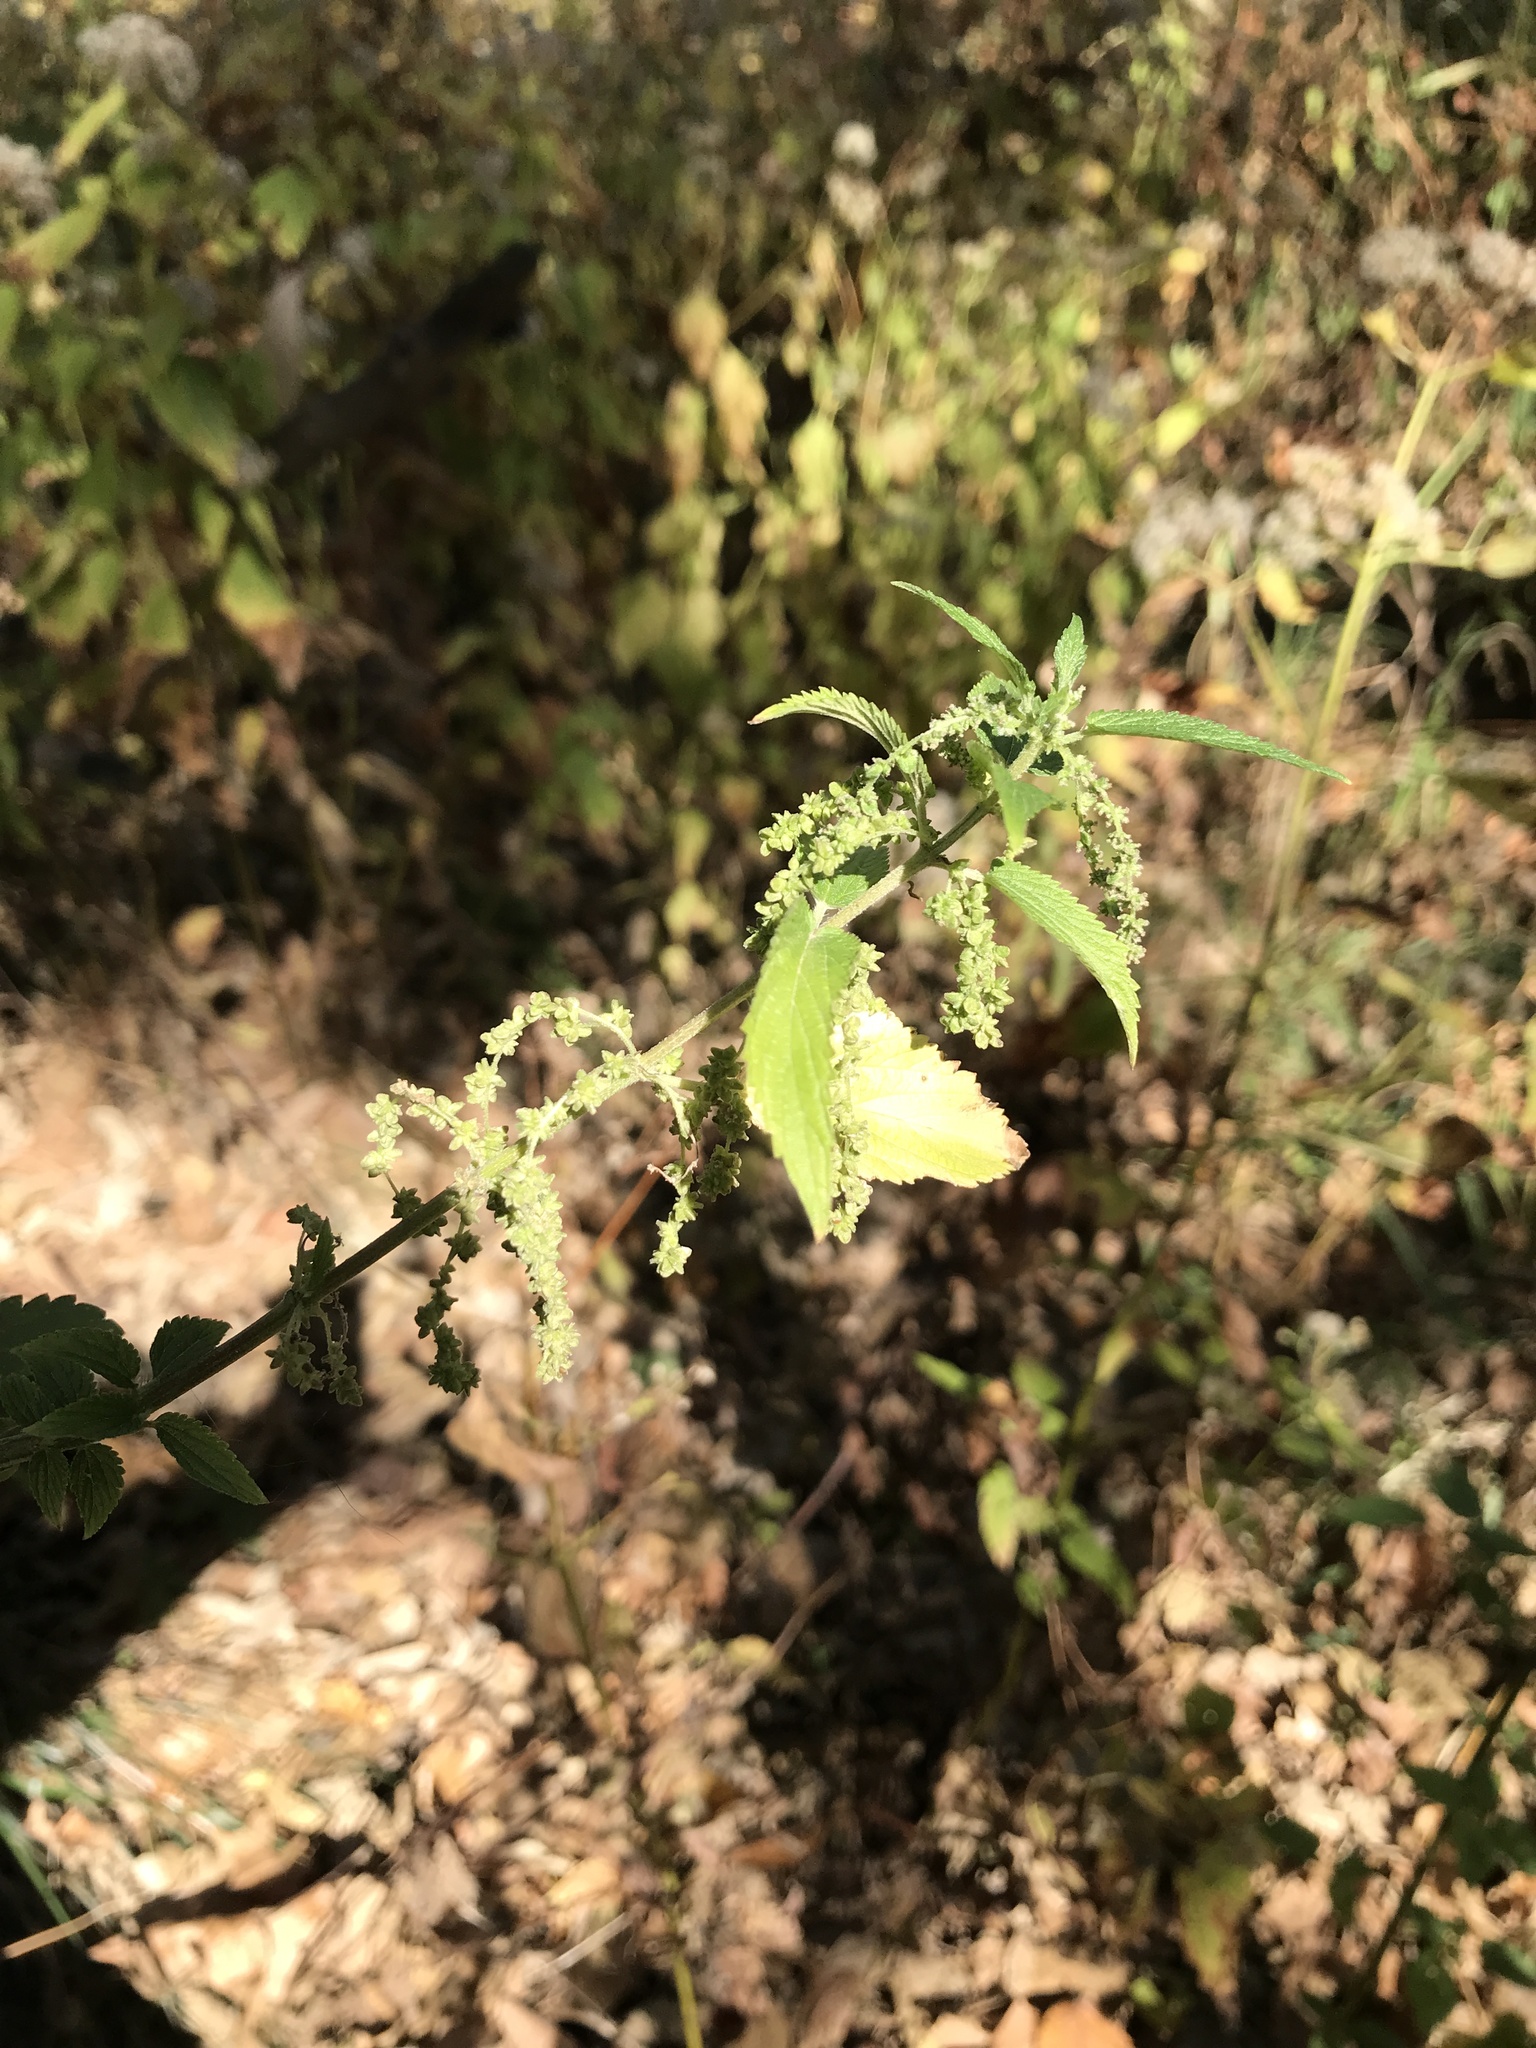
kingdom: Plantae
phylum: Tracheophyta
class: Magnoliopsida
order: Rosales
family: Urticaceae
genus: Urtica
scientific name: Urtica dioica
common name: Common nettle
